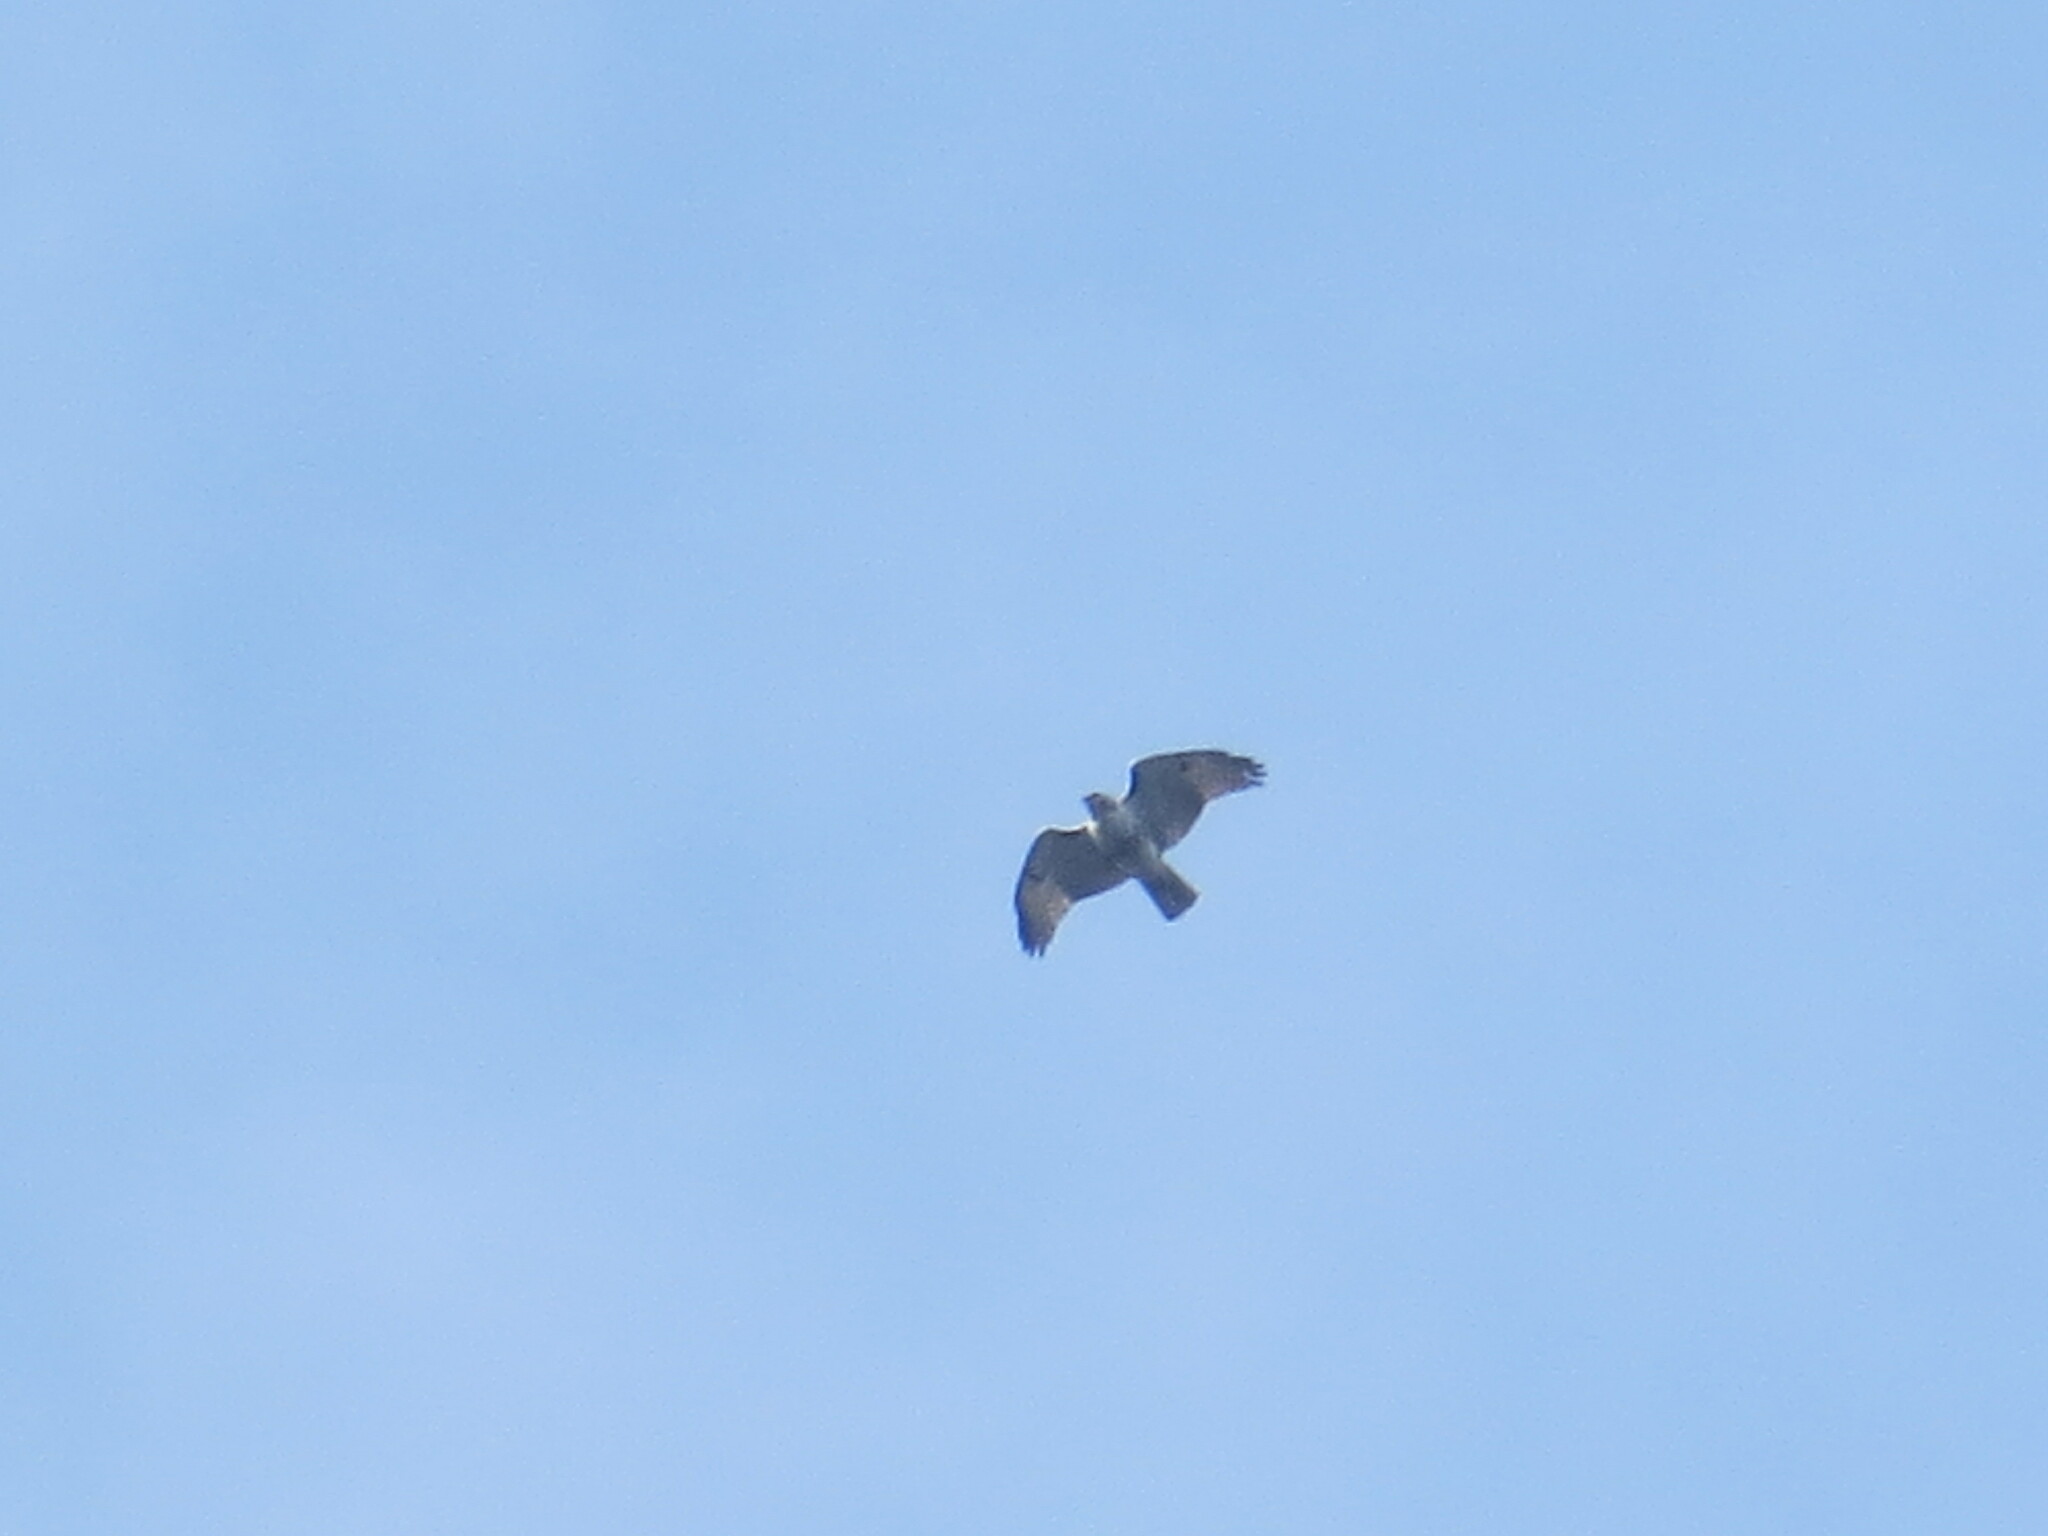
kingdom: Animalia
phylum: Chordata
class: Aves
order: Accipitriformes
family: Accipitridae
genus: Buteo
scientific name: Buteo jamaicensis
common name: Red-tailed hawk
